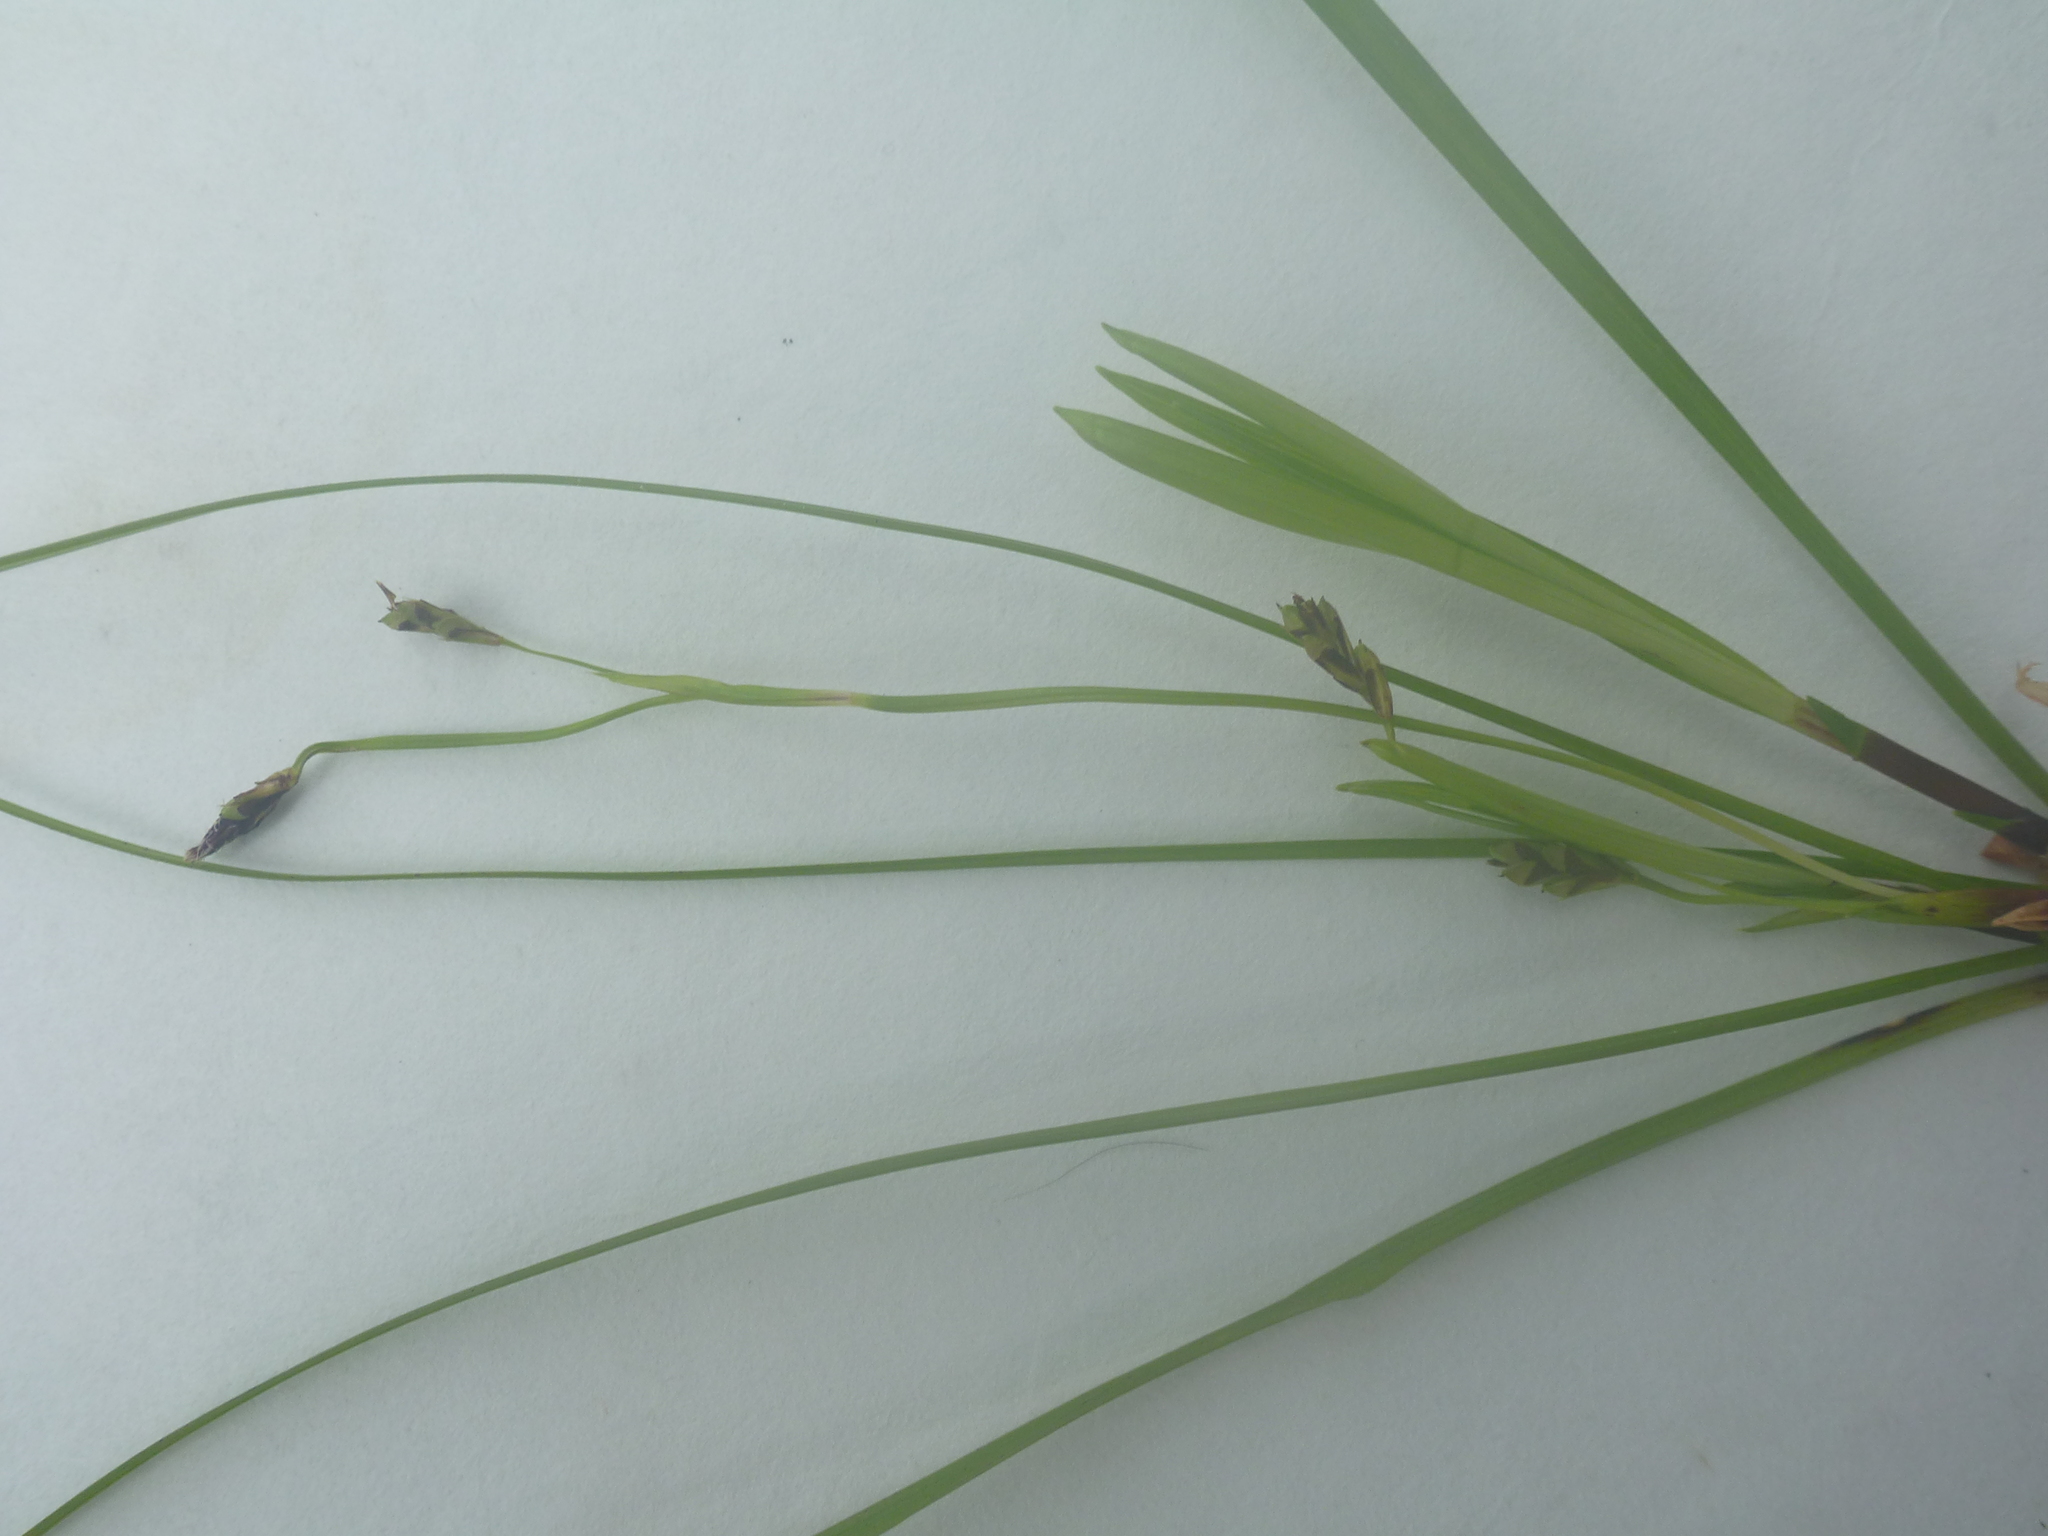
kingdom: Plantae
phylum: Tracheophyta
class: Liliopsida
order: Poales
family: Cyperaceae
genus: Carex
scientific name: Carex pedunculata
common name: Pedunculate sedge
